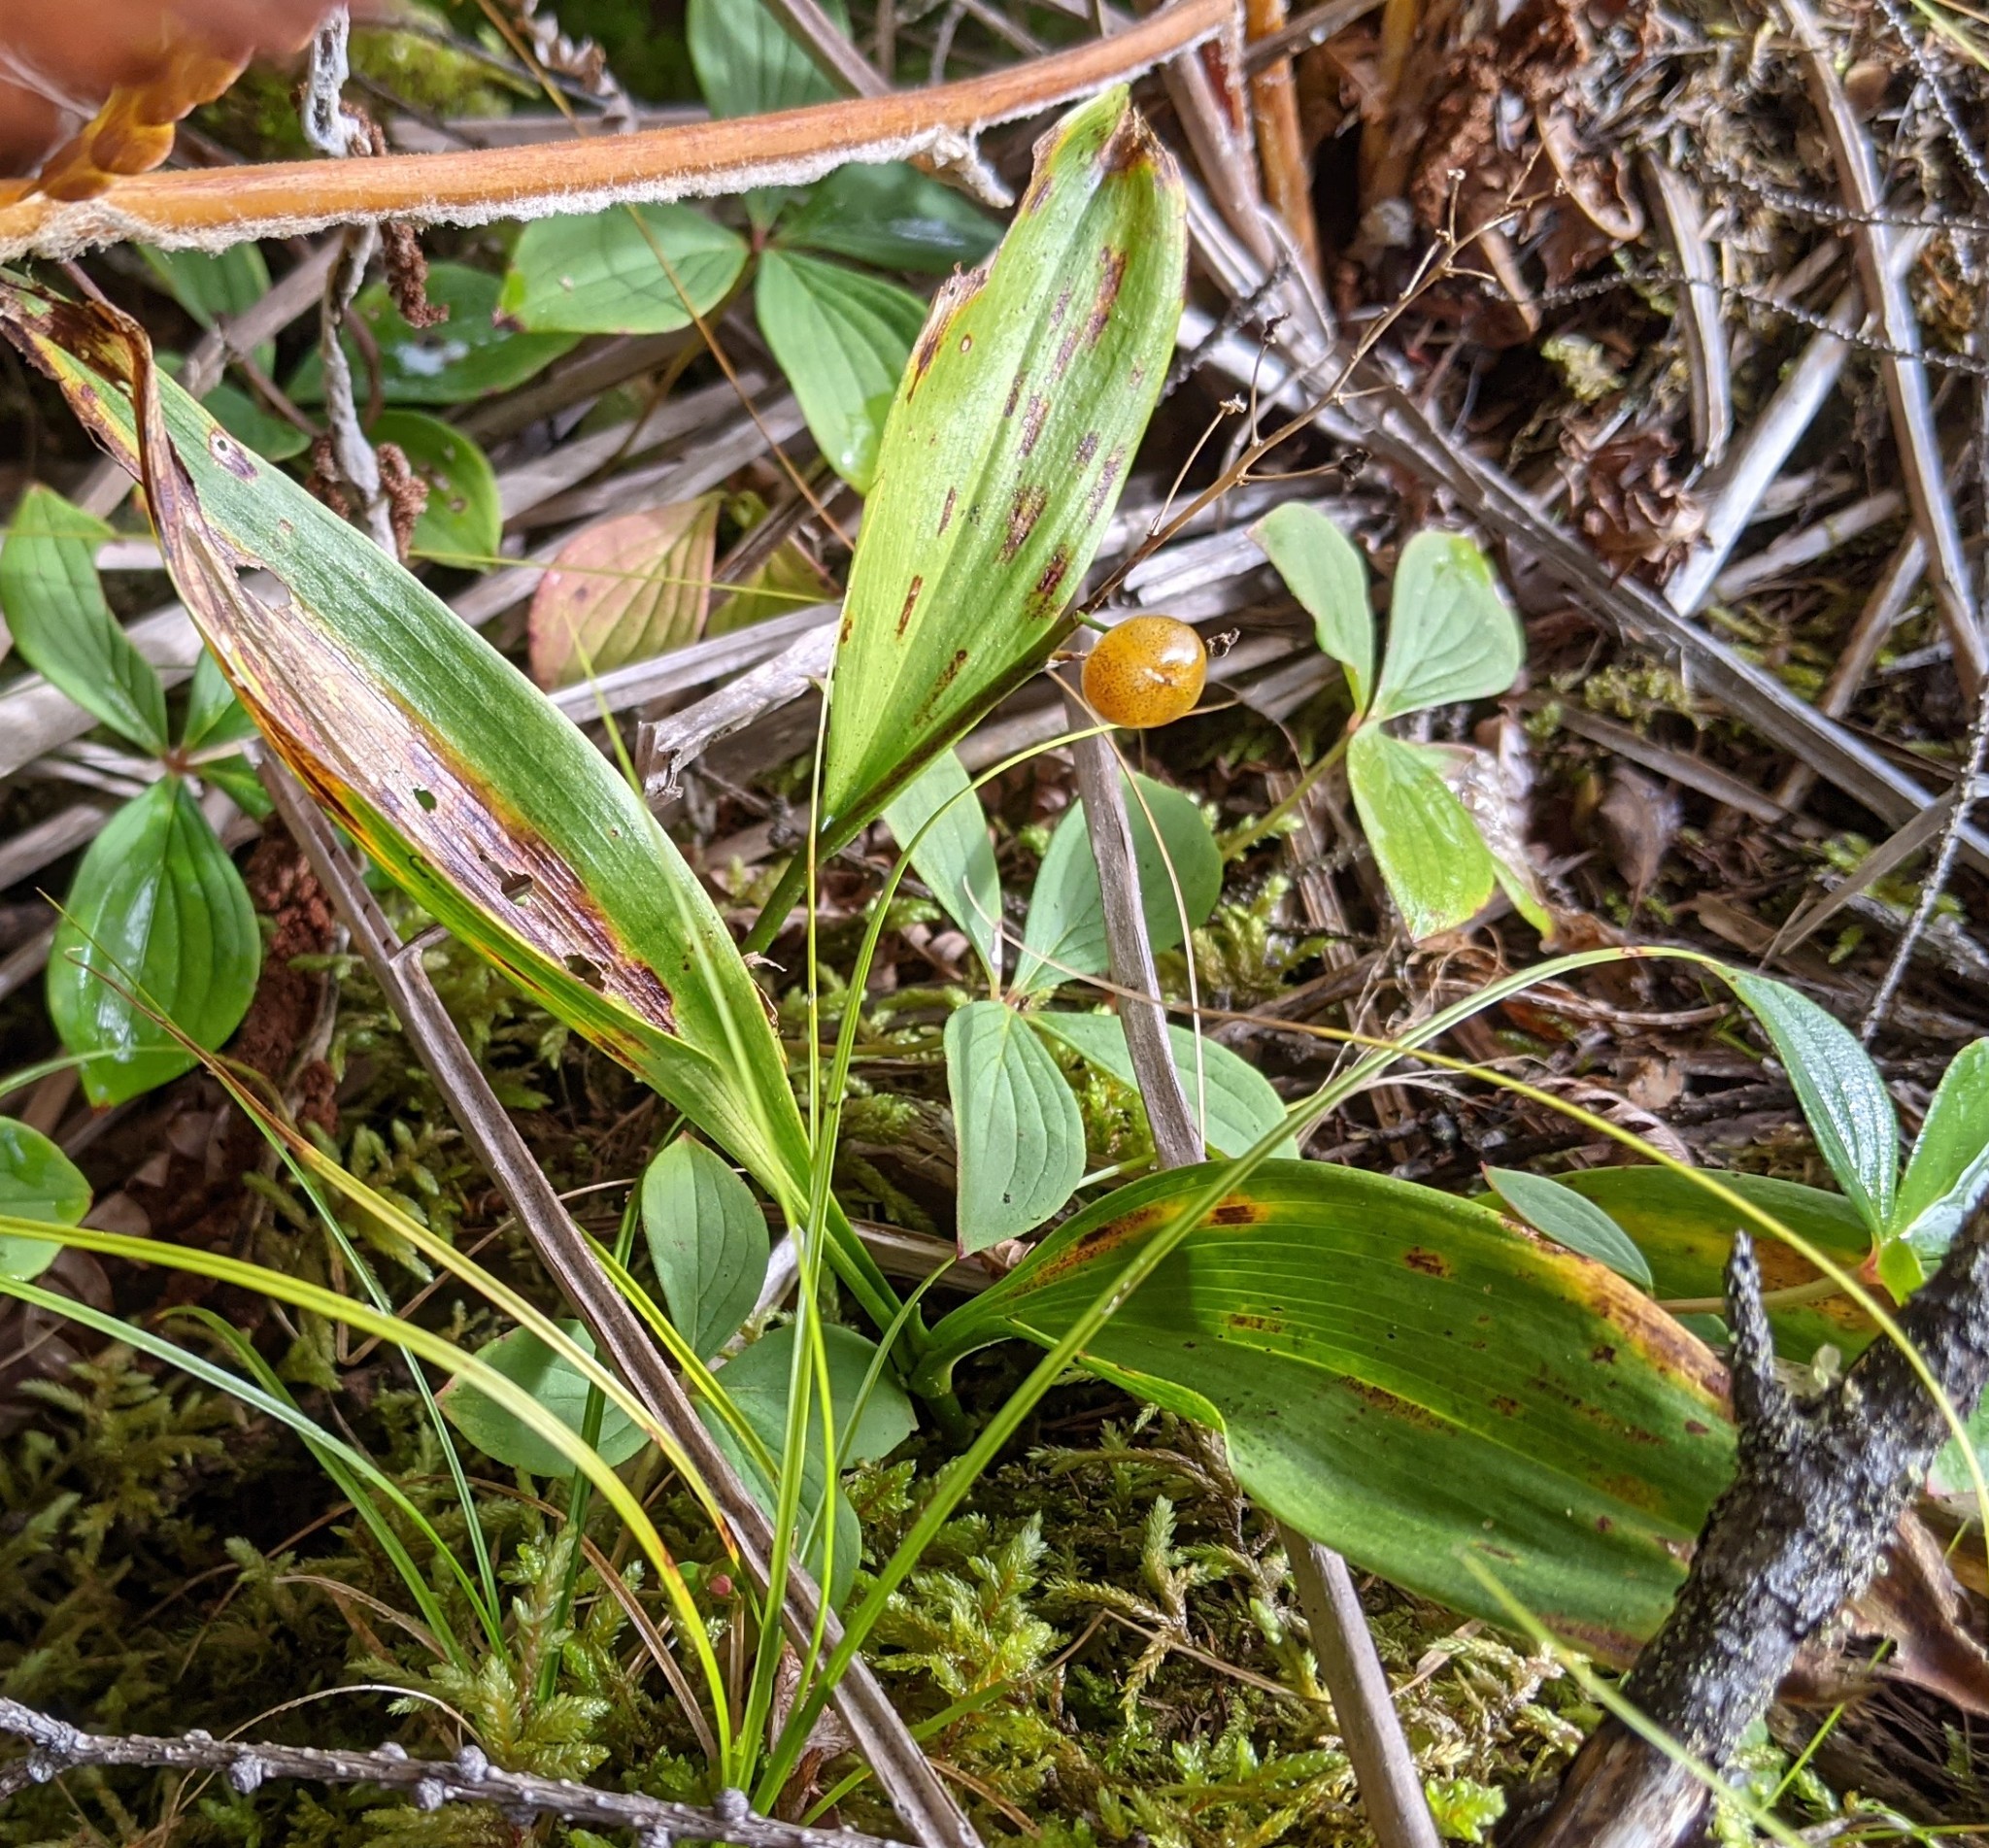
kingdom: Plantae
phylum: Tracheophyta
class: Liliopsida
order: Asparagales
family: Asparagaceae
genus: Maianthemum
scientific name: Maianthemum trifolium
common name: Swamp false solomon's seal
